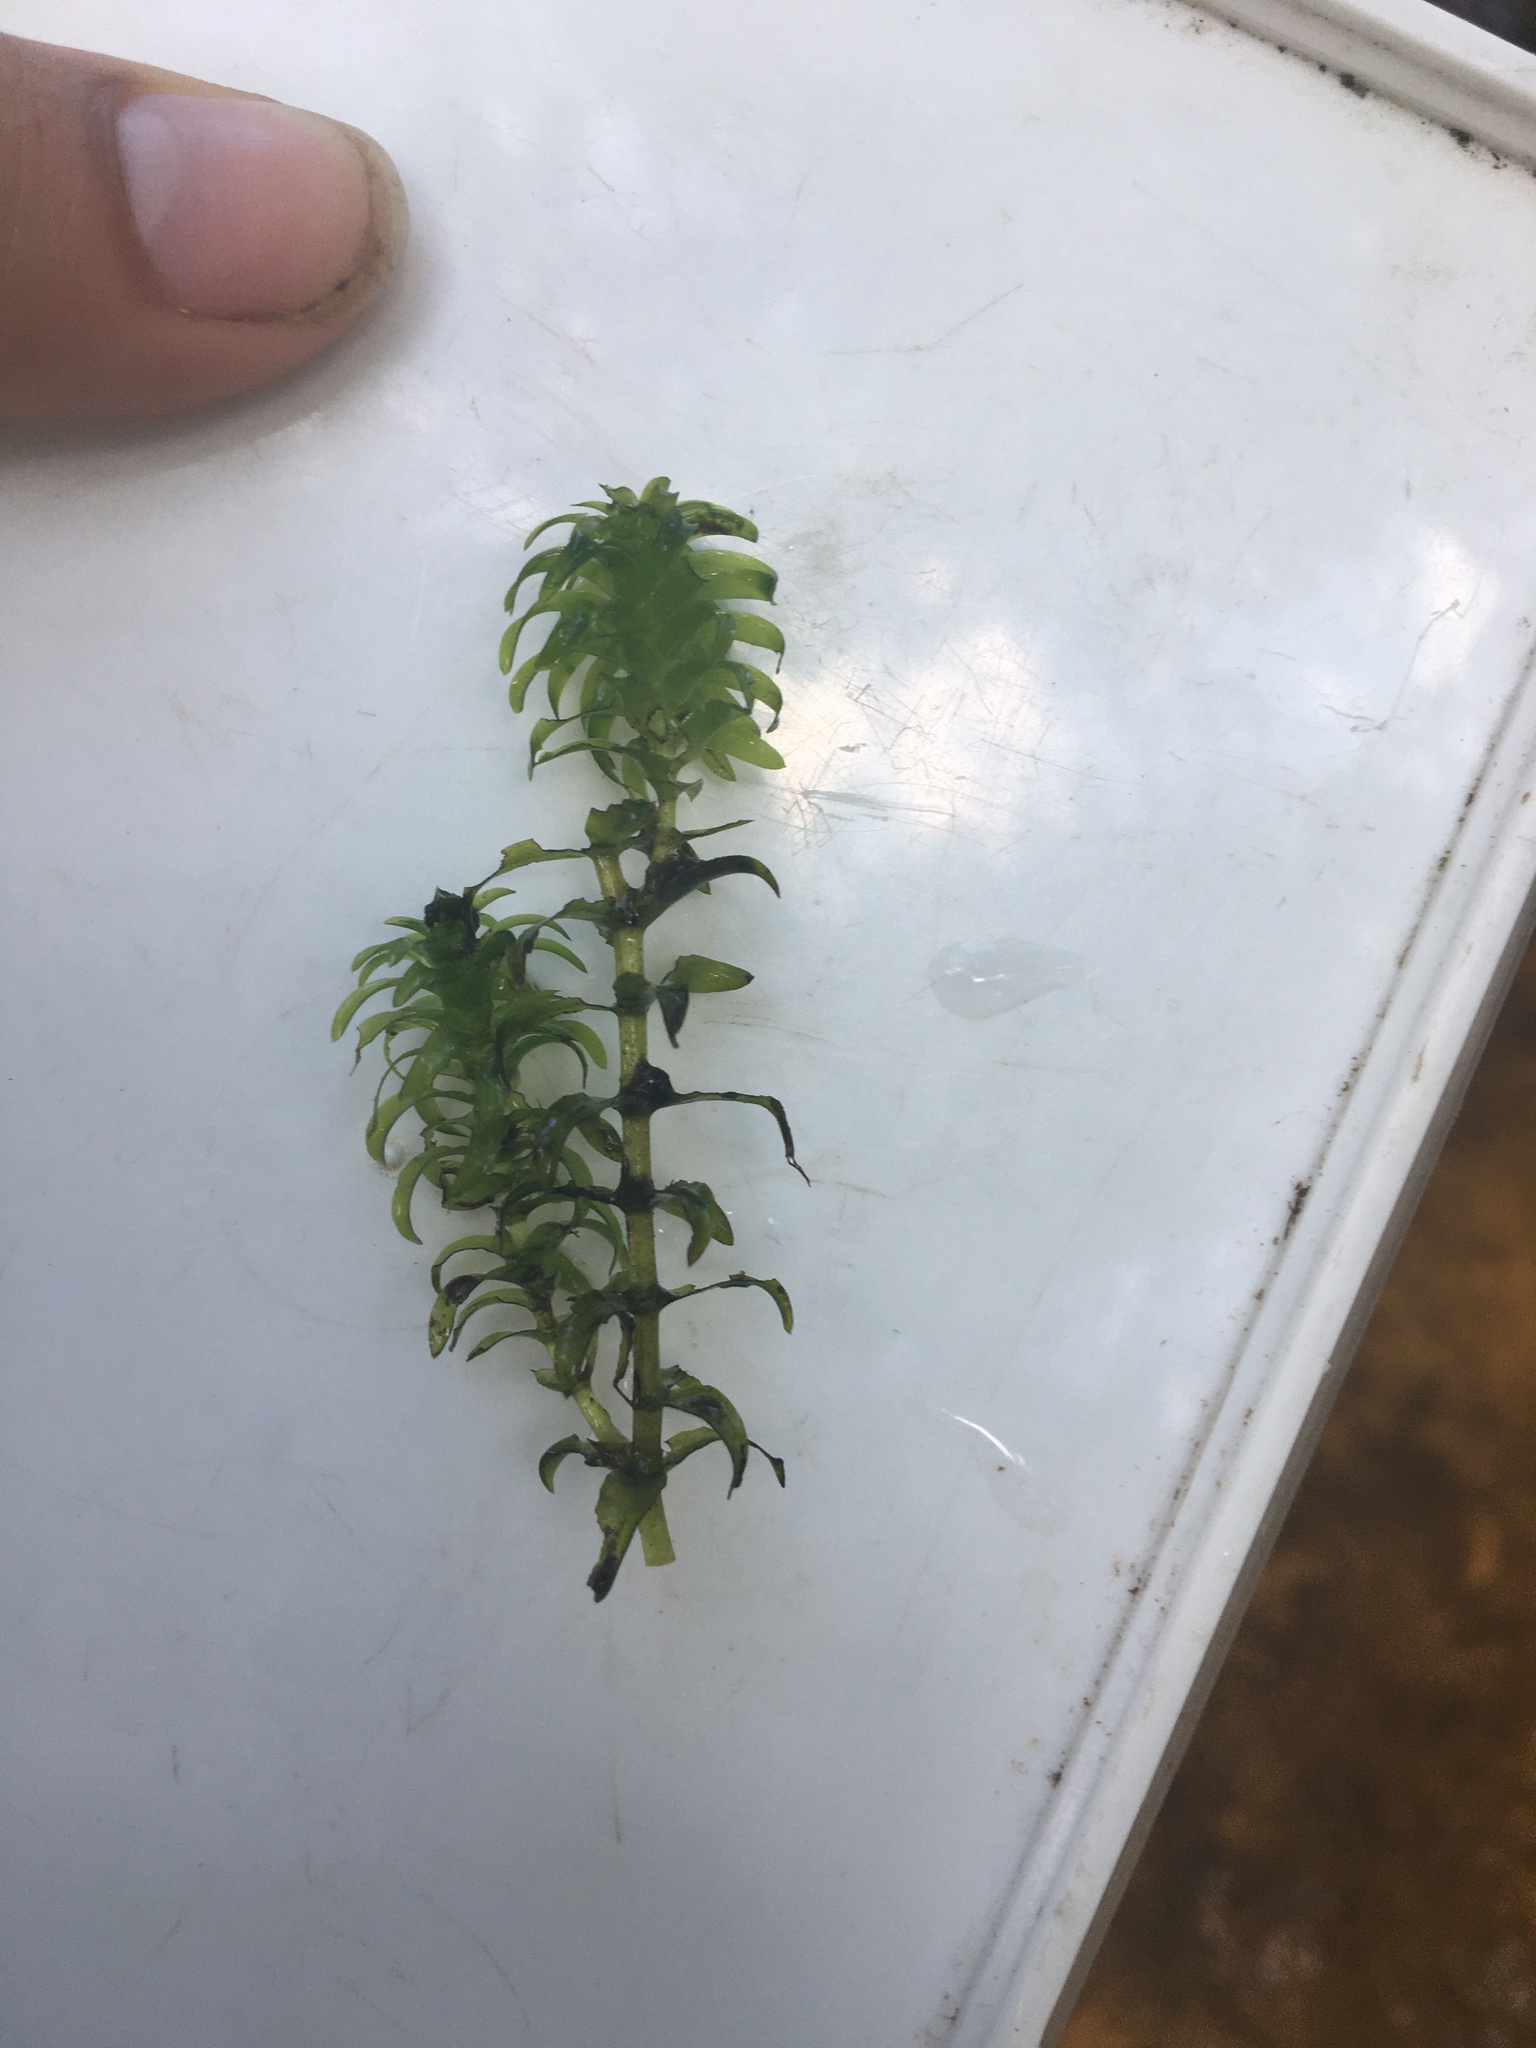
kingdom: Plantae
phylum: Tracheophyta
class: Liliopsida
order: Alismatales
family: Hydrocharitaceae
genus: Elodea
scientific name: Elodea canadensis
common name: Canadian waterweed
